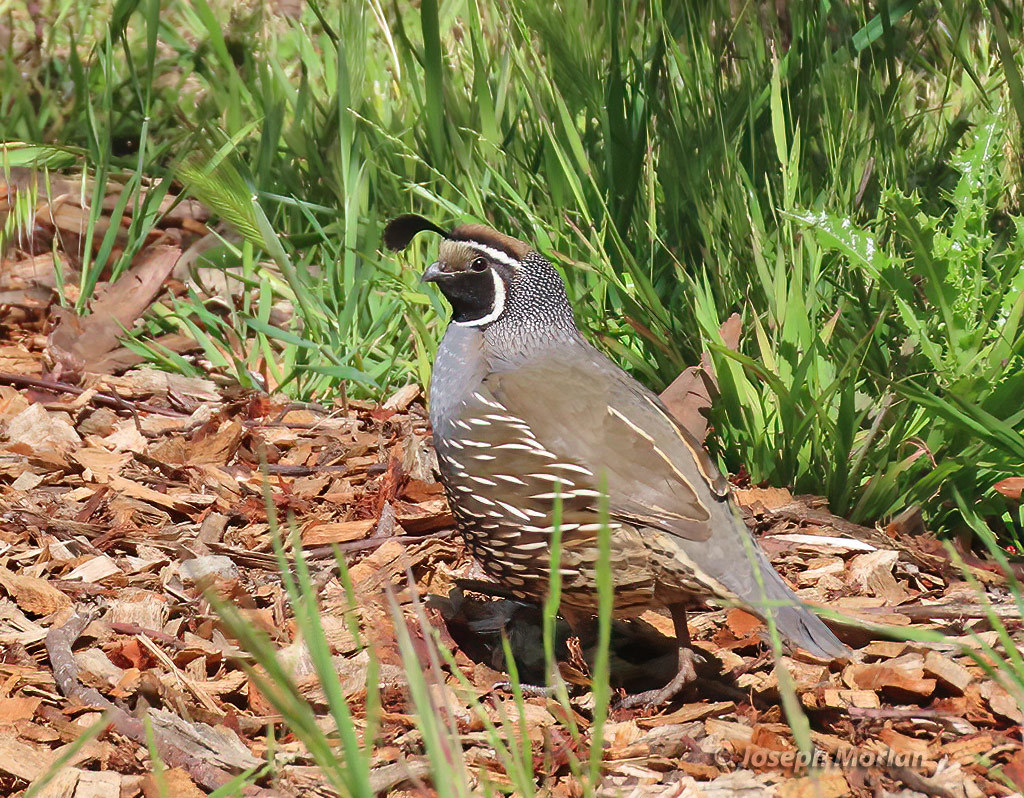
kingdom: Animalia
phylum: Chordata
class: Aves
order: Galliformes
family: Odontophoridae
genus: Callipepla
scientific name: Callipepla californica
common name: California quail
